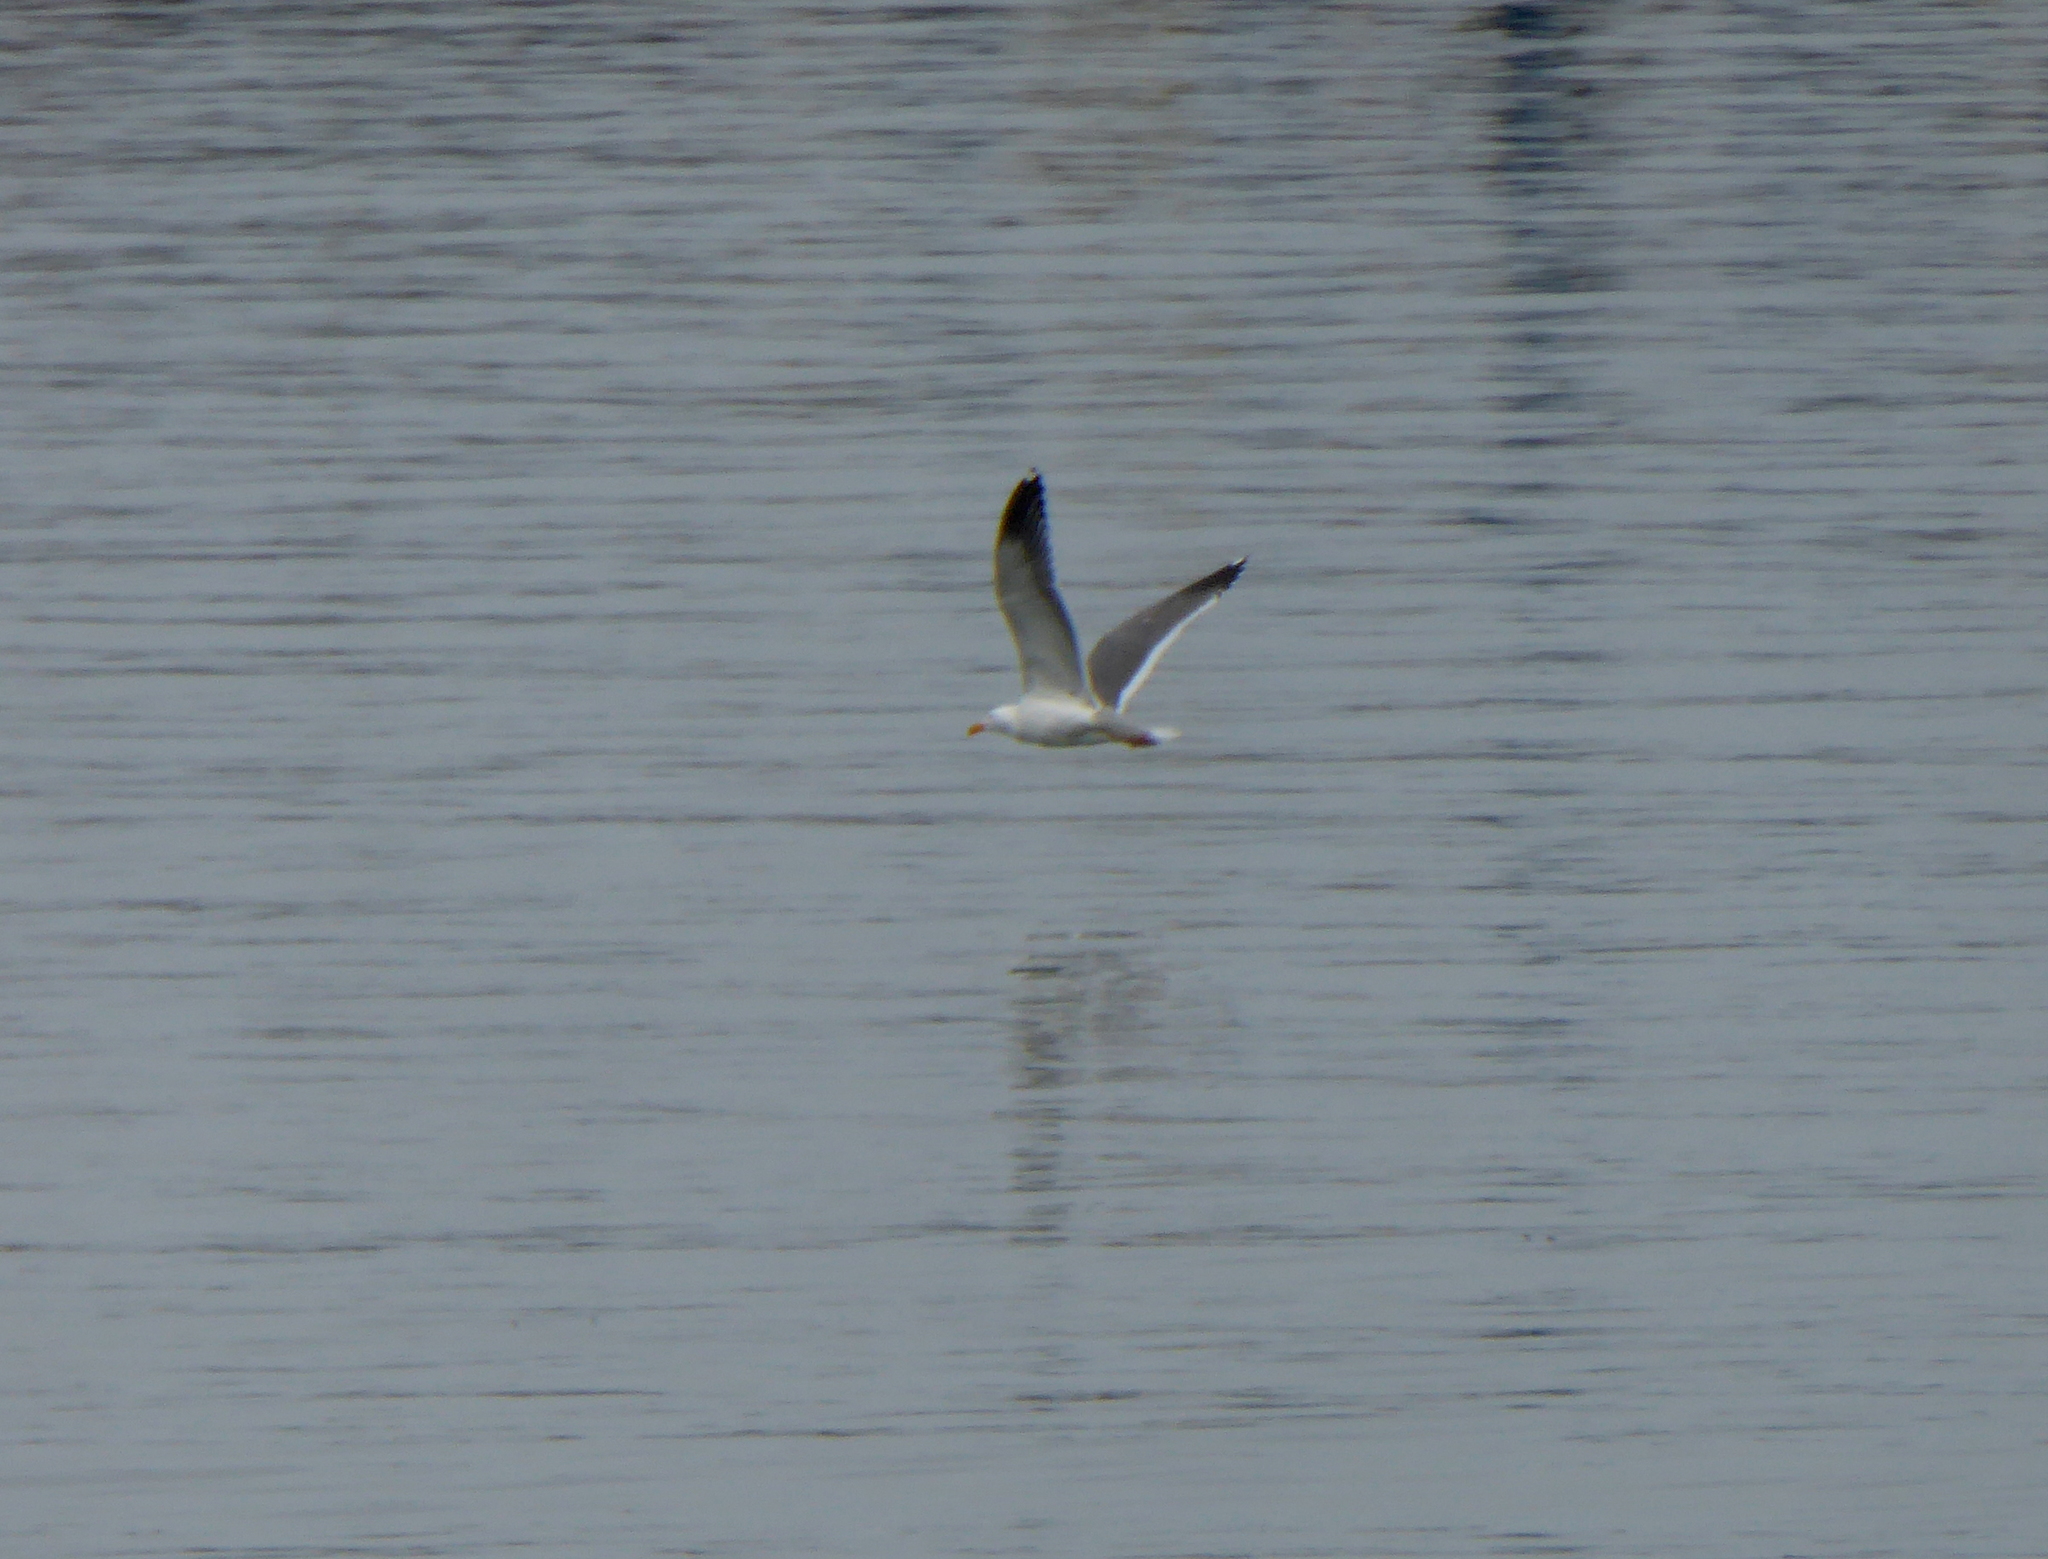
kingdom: Animalia
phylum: Chordata
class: Aves
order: Charadriiformes
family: Laridae
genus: Larus
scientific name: Larus occidentalis
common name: Western gull
